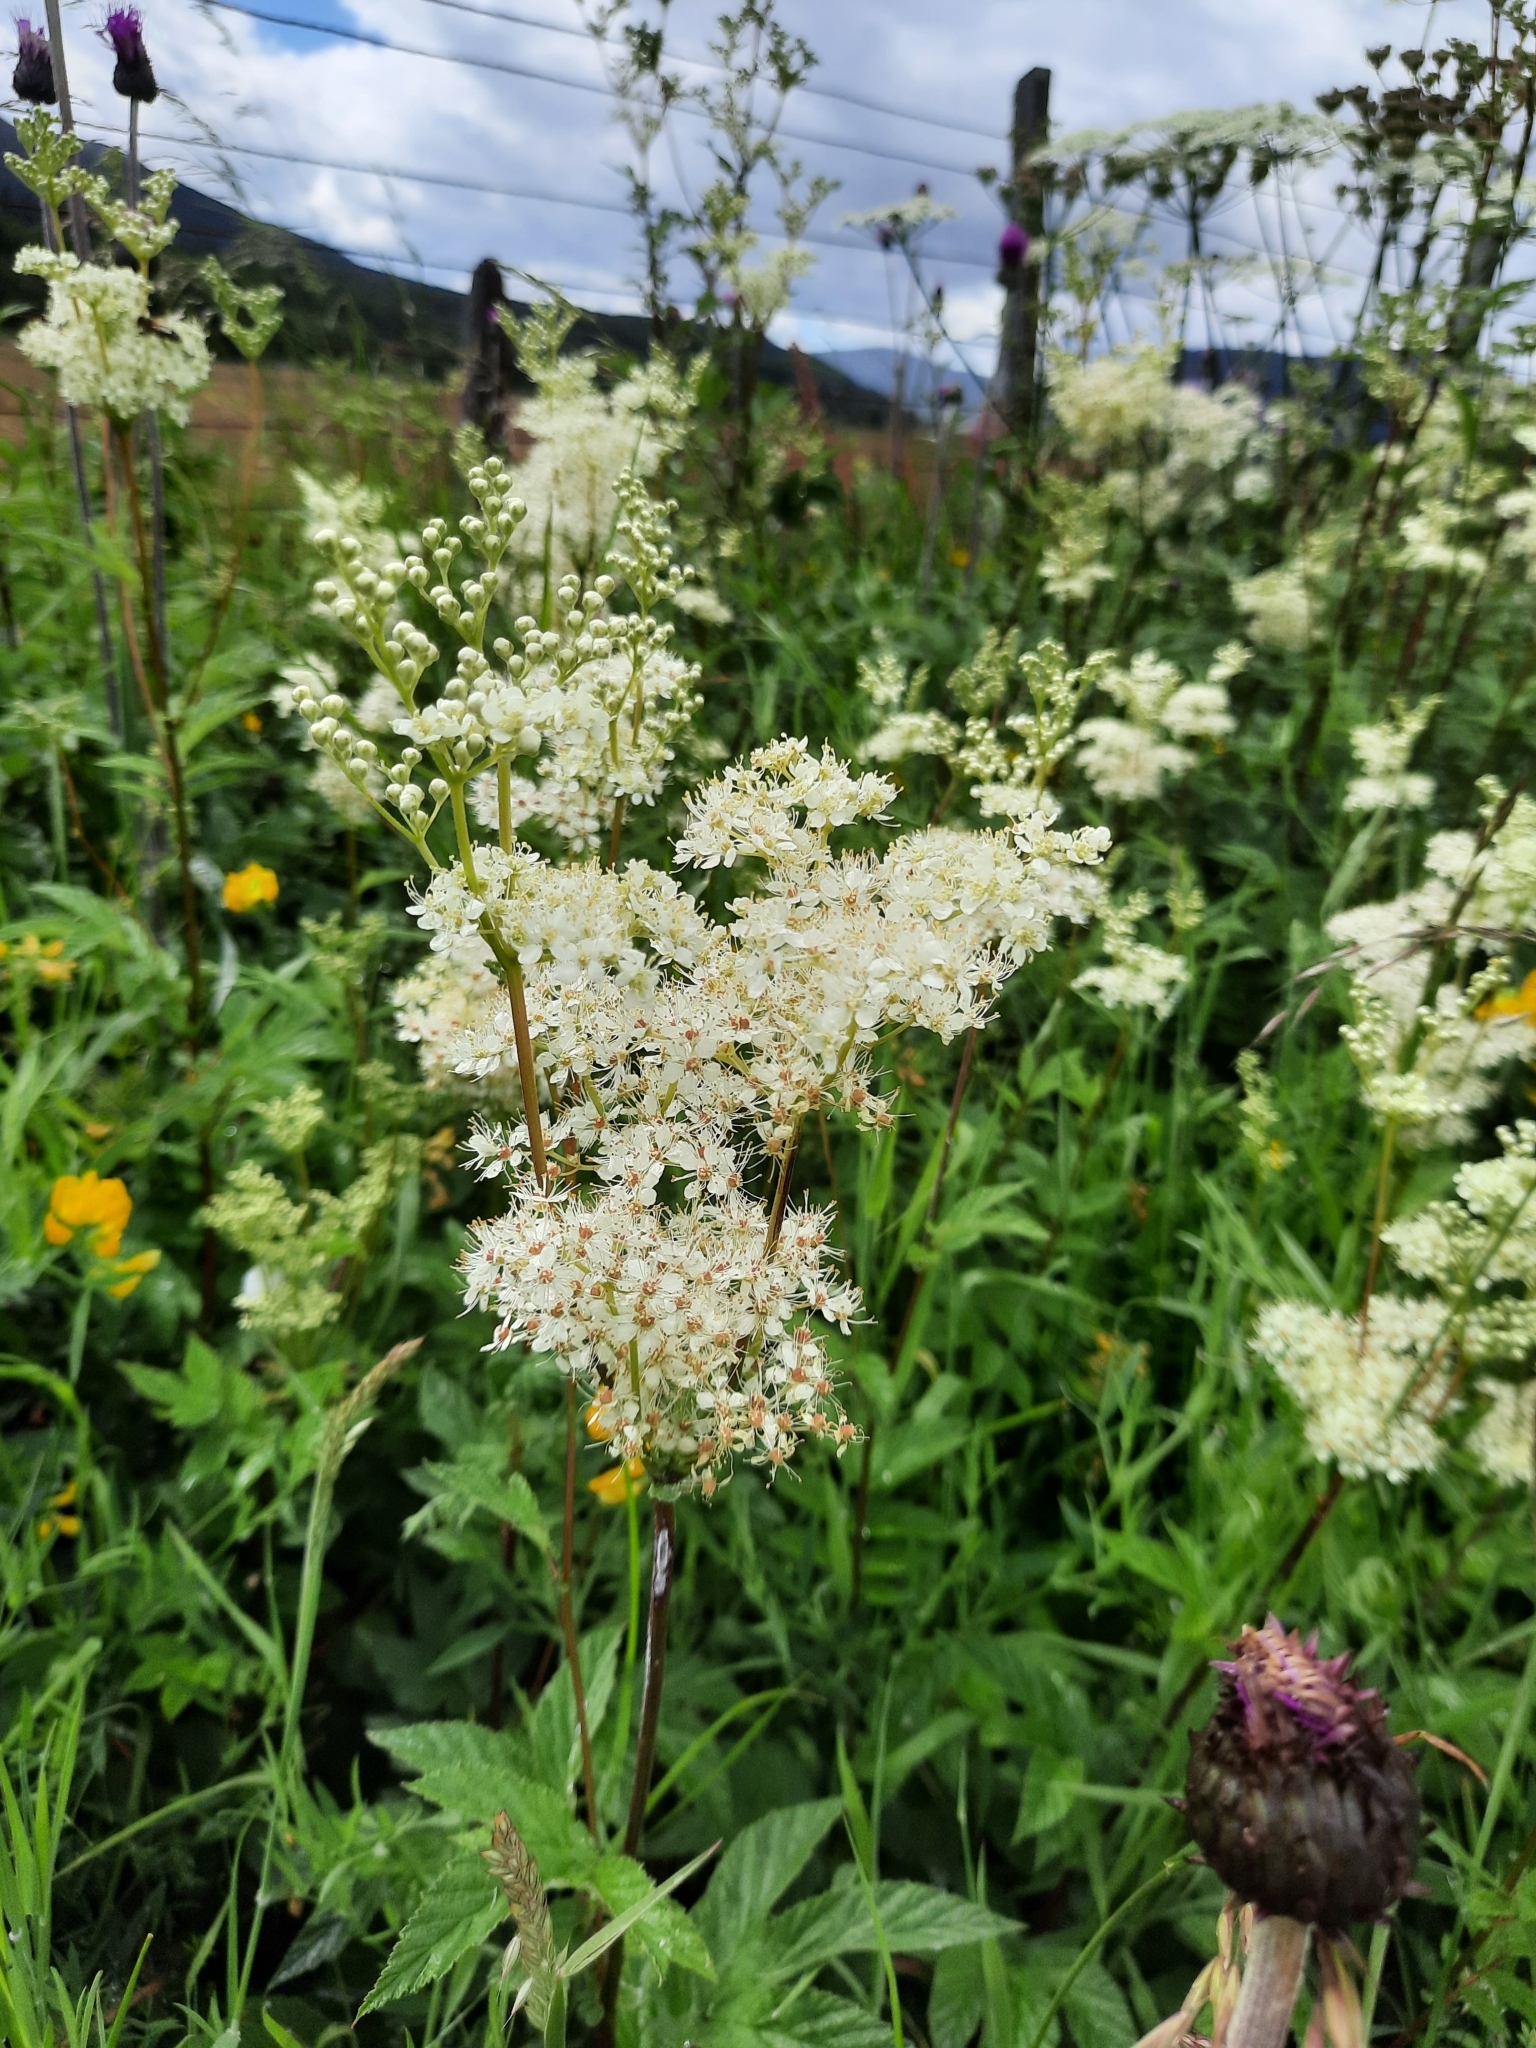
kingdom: Plantae
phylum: Tracheophyta
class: Magnoliopsida
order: Rosales
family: Rosaceae
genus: Filipendula
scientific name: Filipendula ulmaria
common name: Meadowsweet
